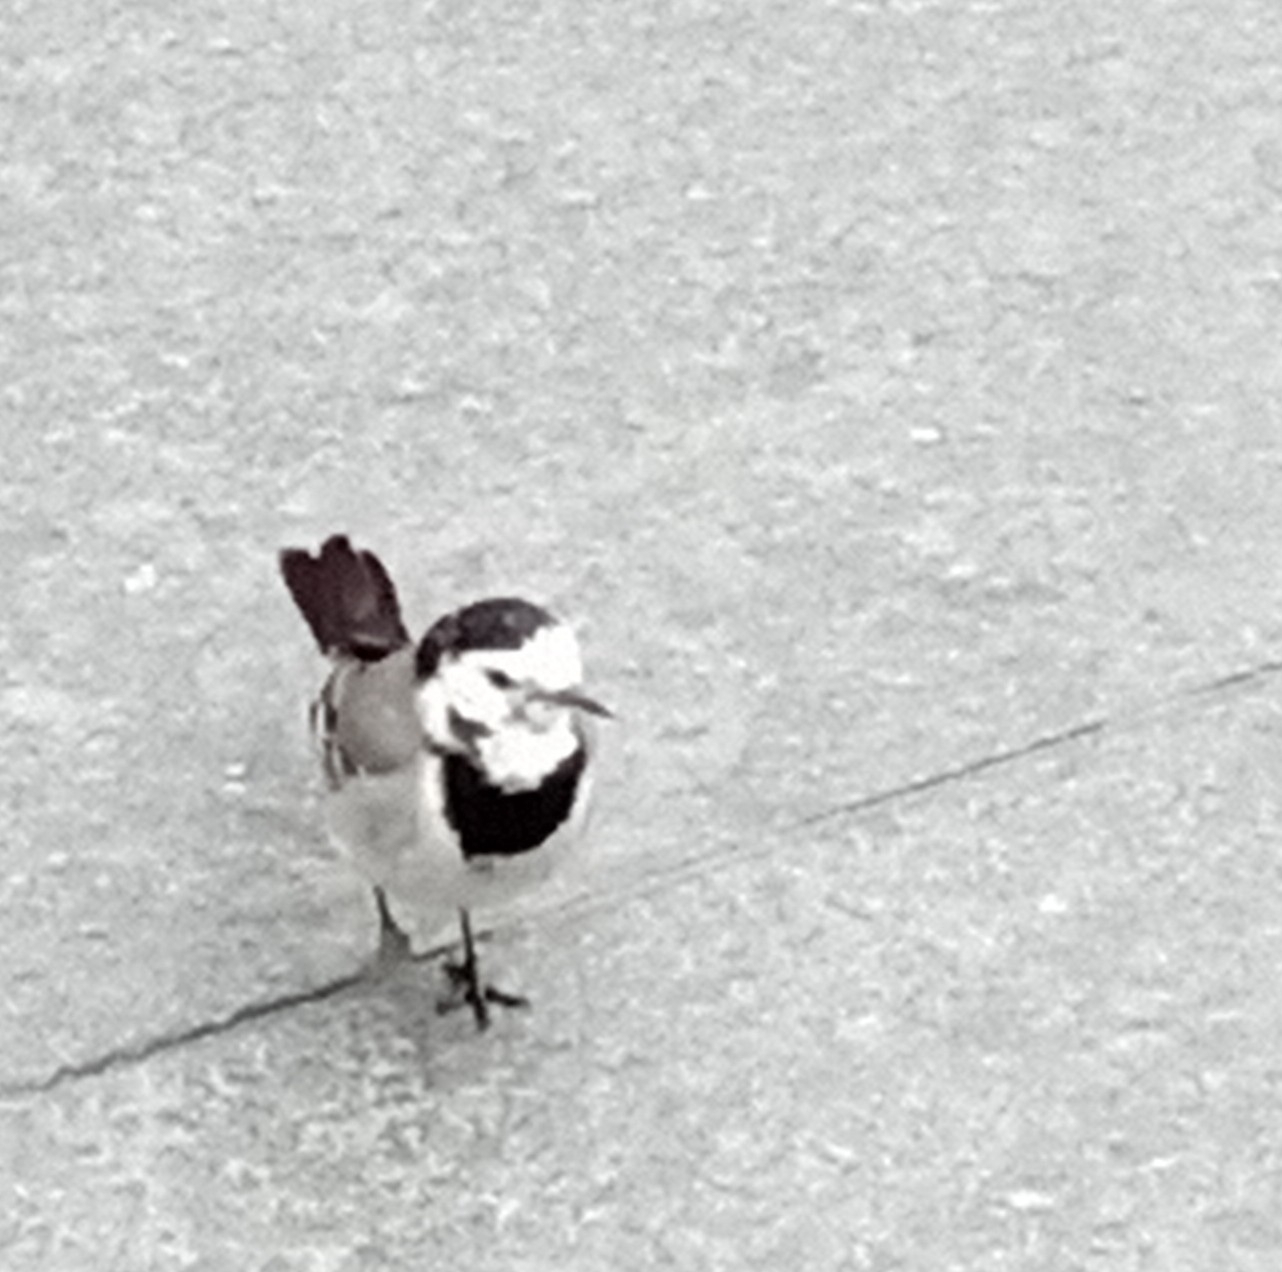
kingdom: Animalia
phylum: Chordata
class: Aves
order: Passeriformes
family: Motacillidae
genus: Motacilla
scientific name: Motacilla alba
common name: White wagtail
